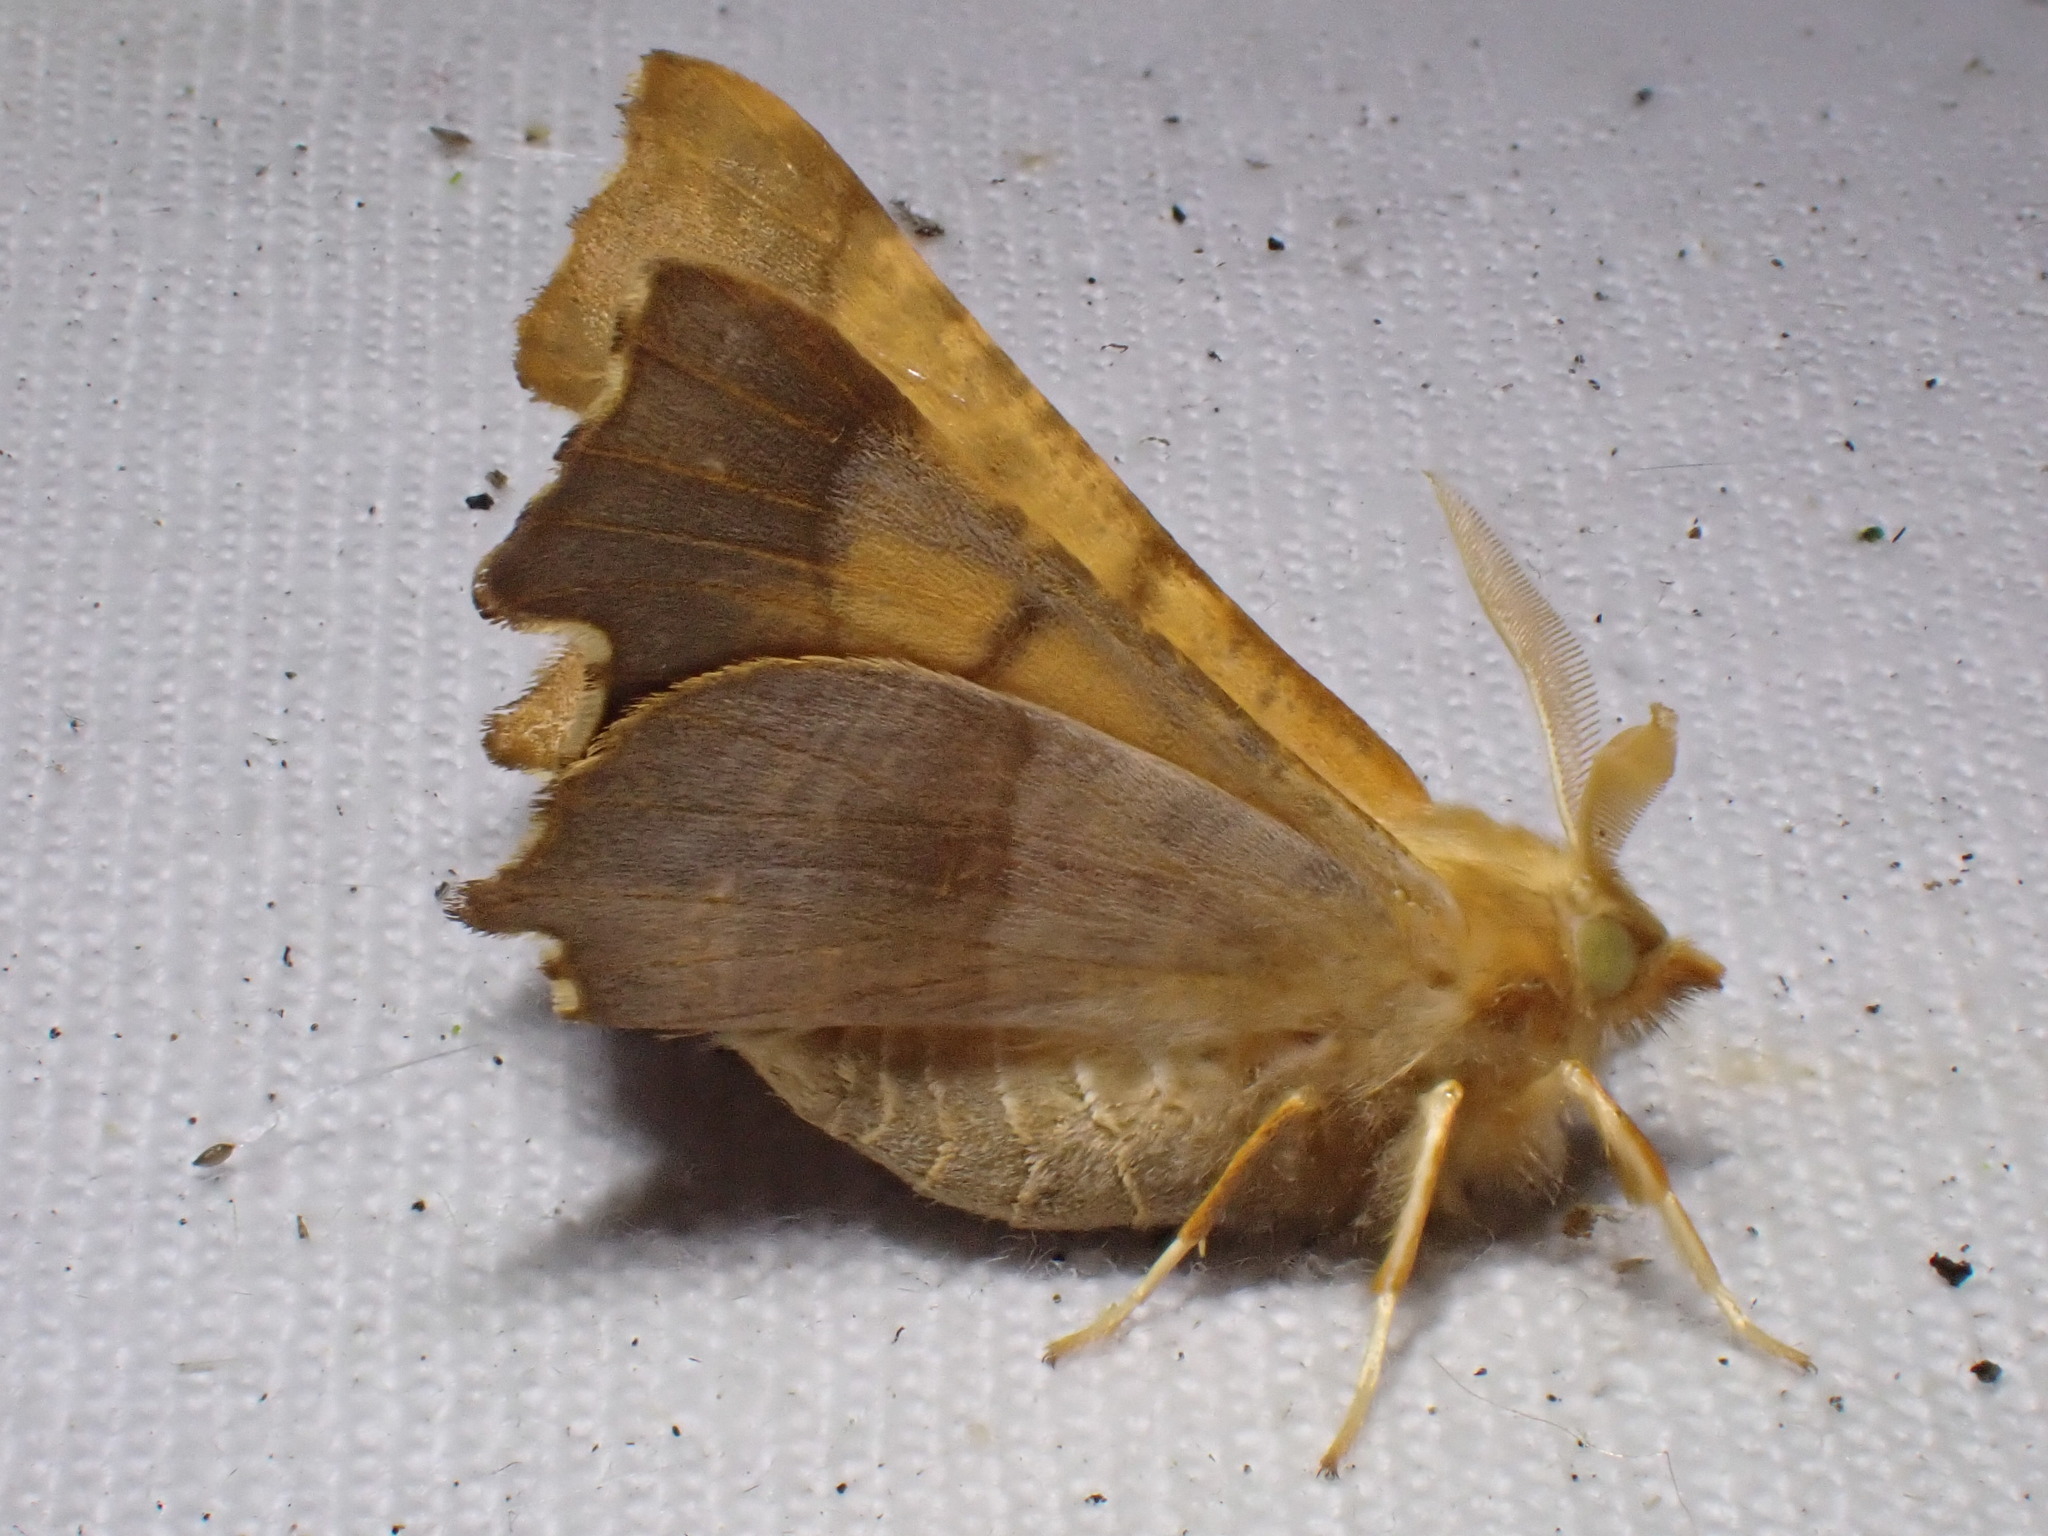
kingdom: Animalia
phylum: Arthropoda
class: Insecta
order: Lepidoptera
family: Geometridae
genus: Ennomos
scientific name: Ennomos fuscantaria
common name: Dusky thorn
